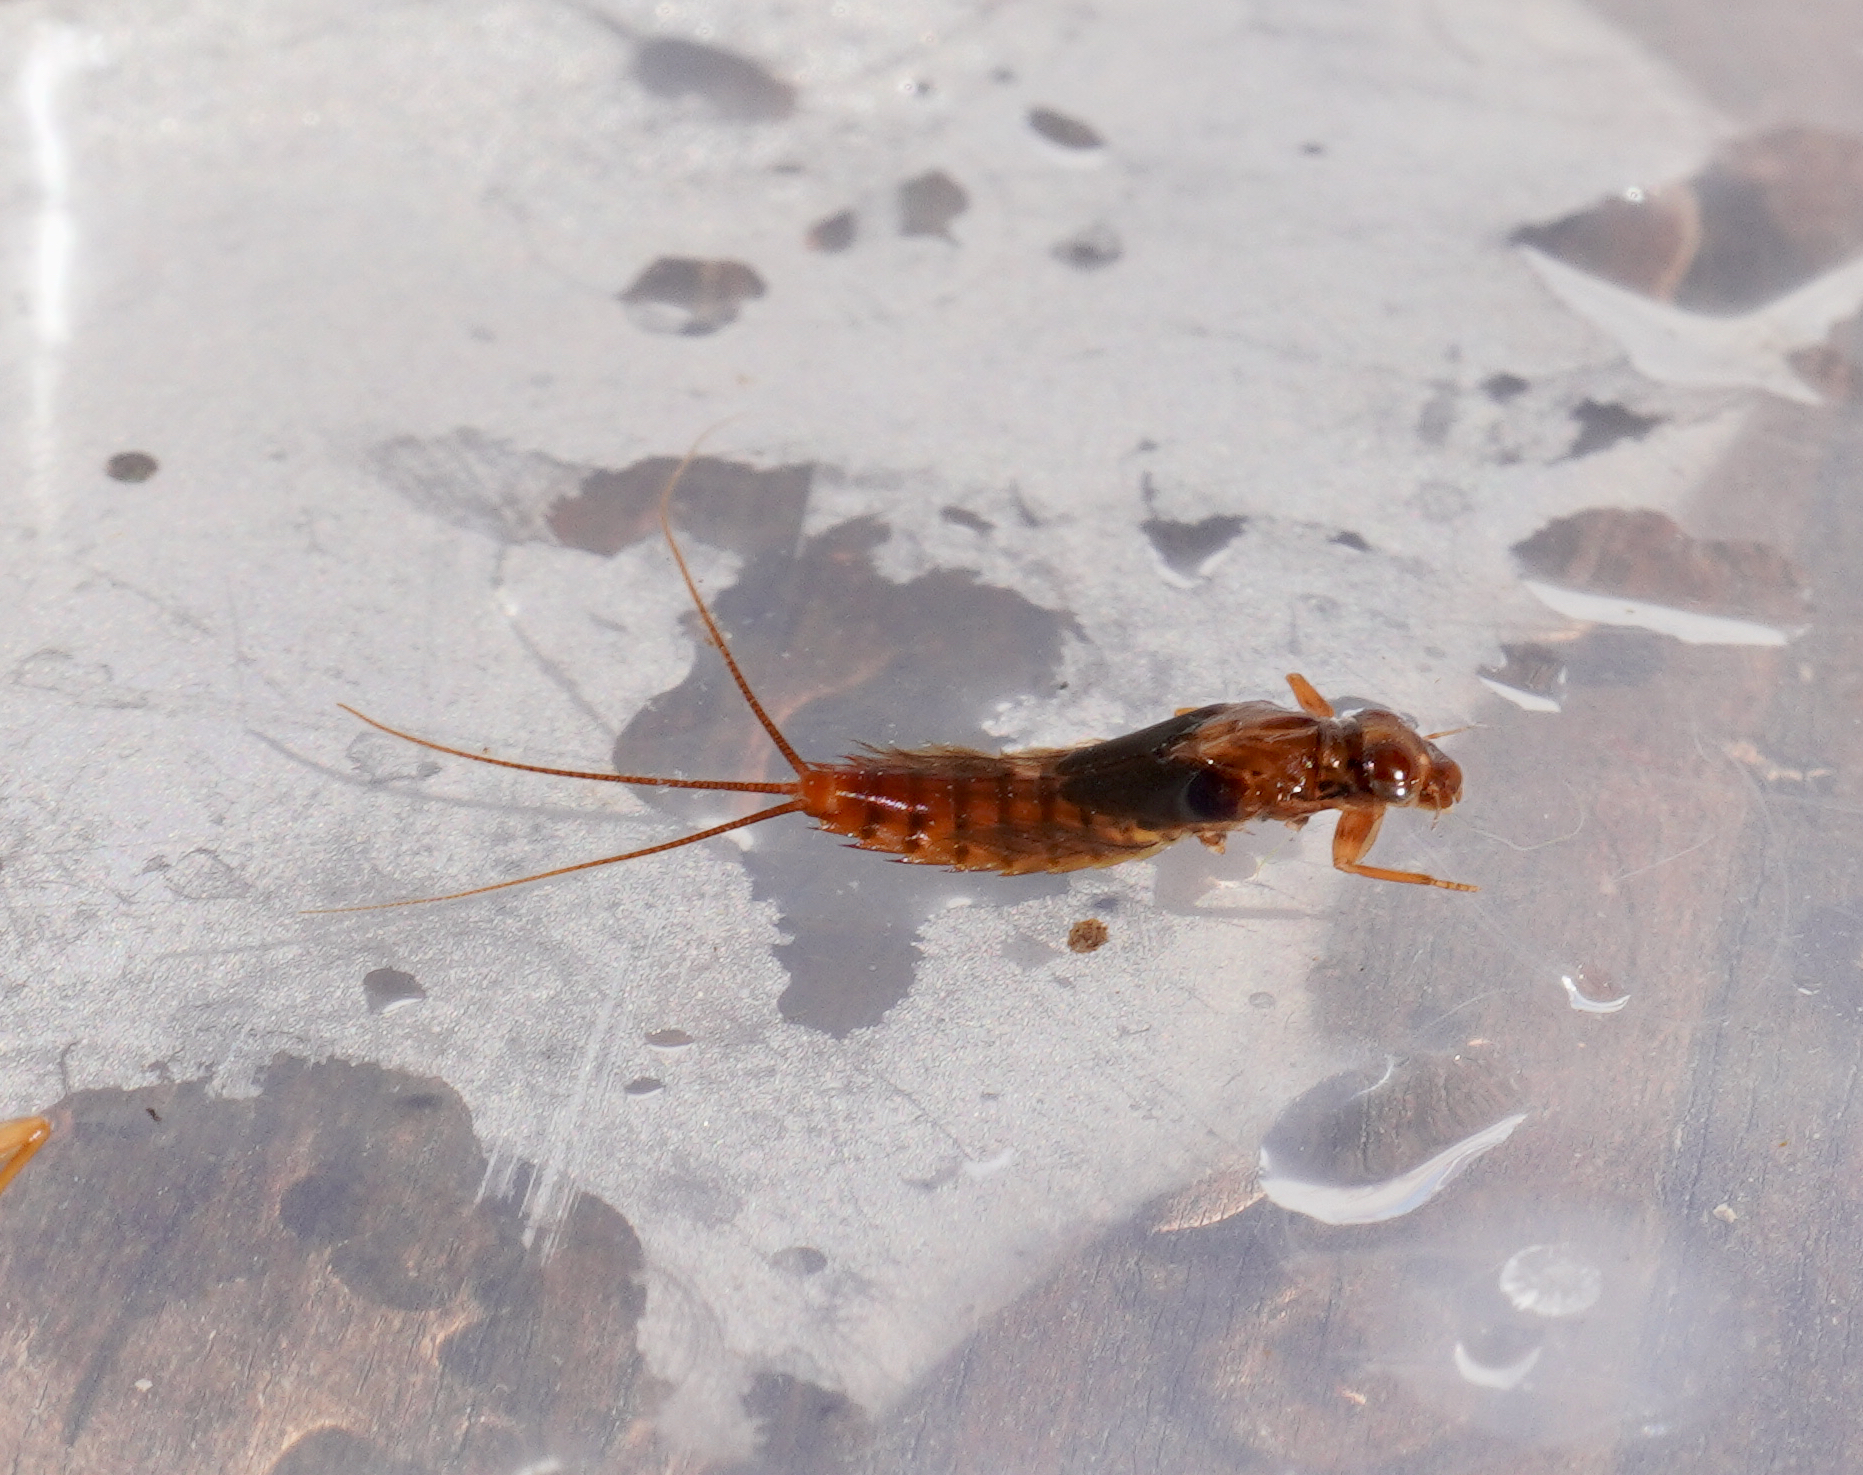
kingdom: Animalia
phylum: Arthropoda
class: Insecta
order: Ephemeroptera
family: Leptophlebiidae
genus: Acanthophlebia
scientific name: Acanthophlebia cruentata
